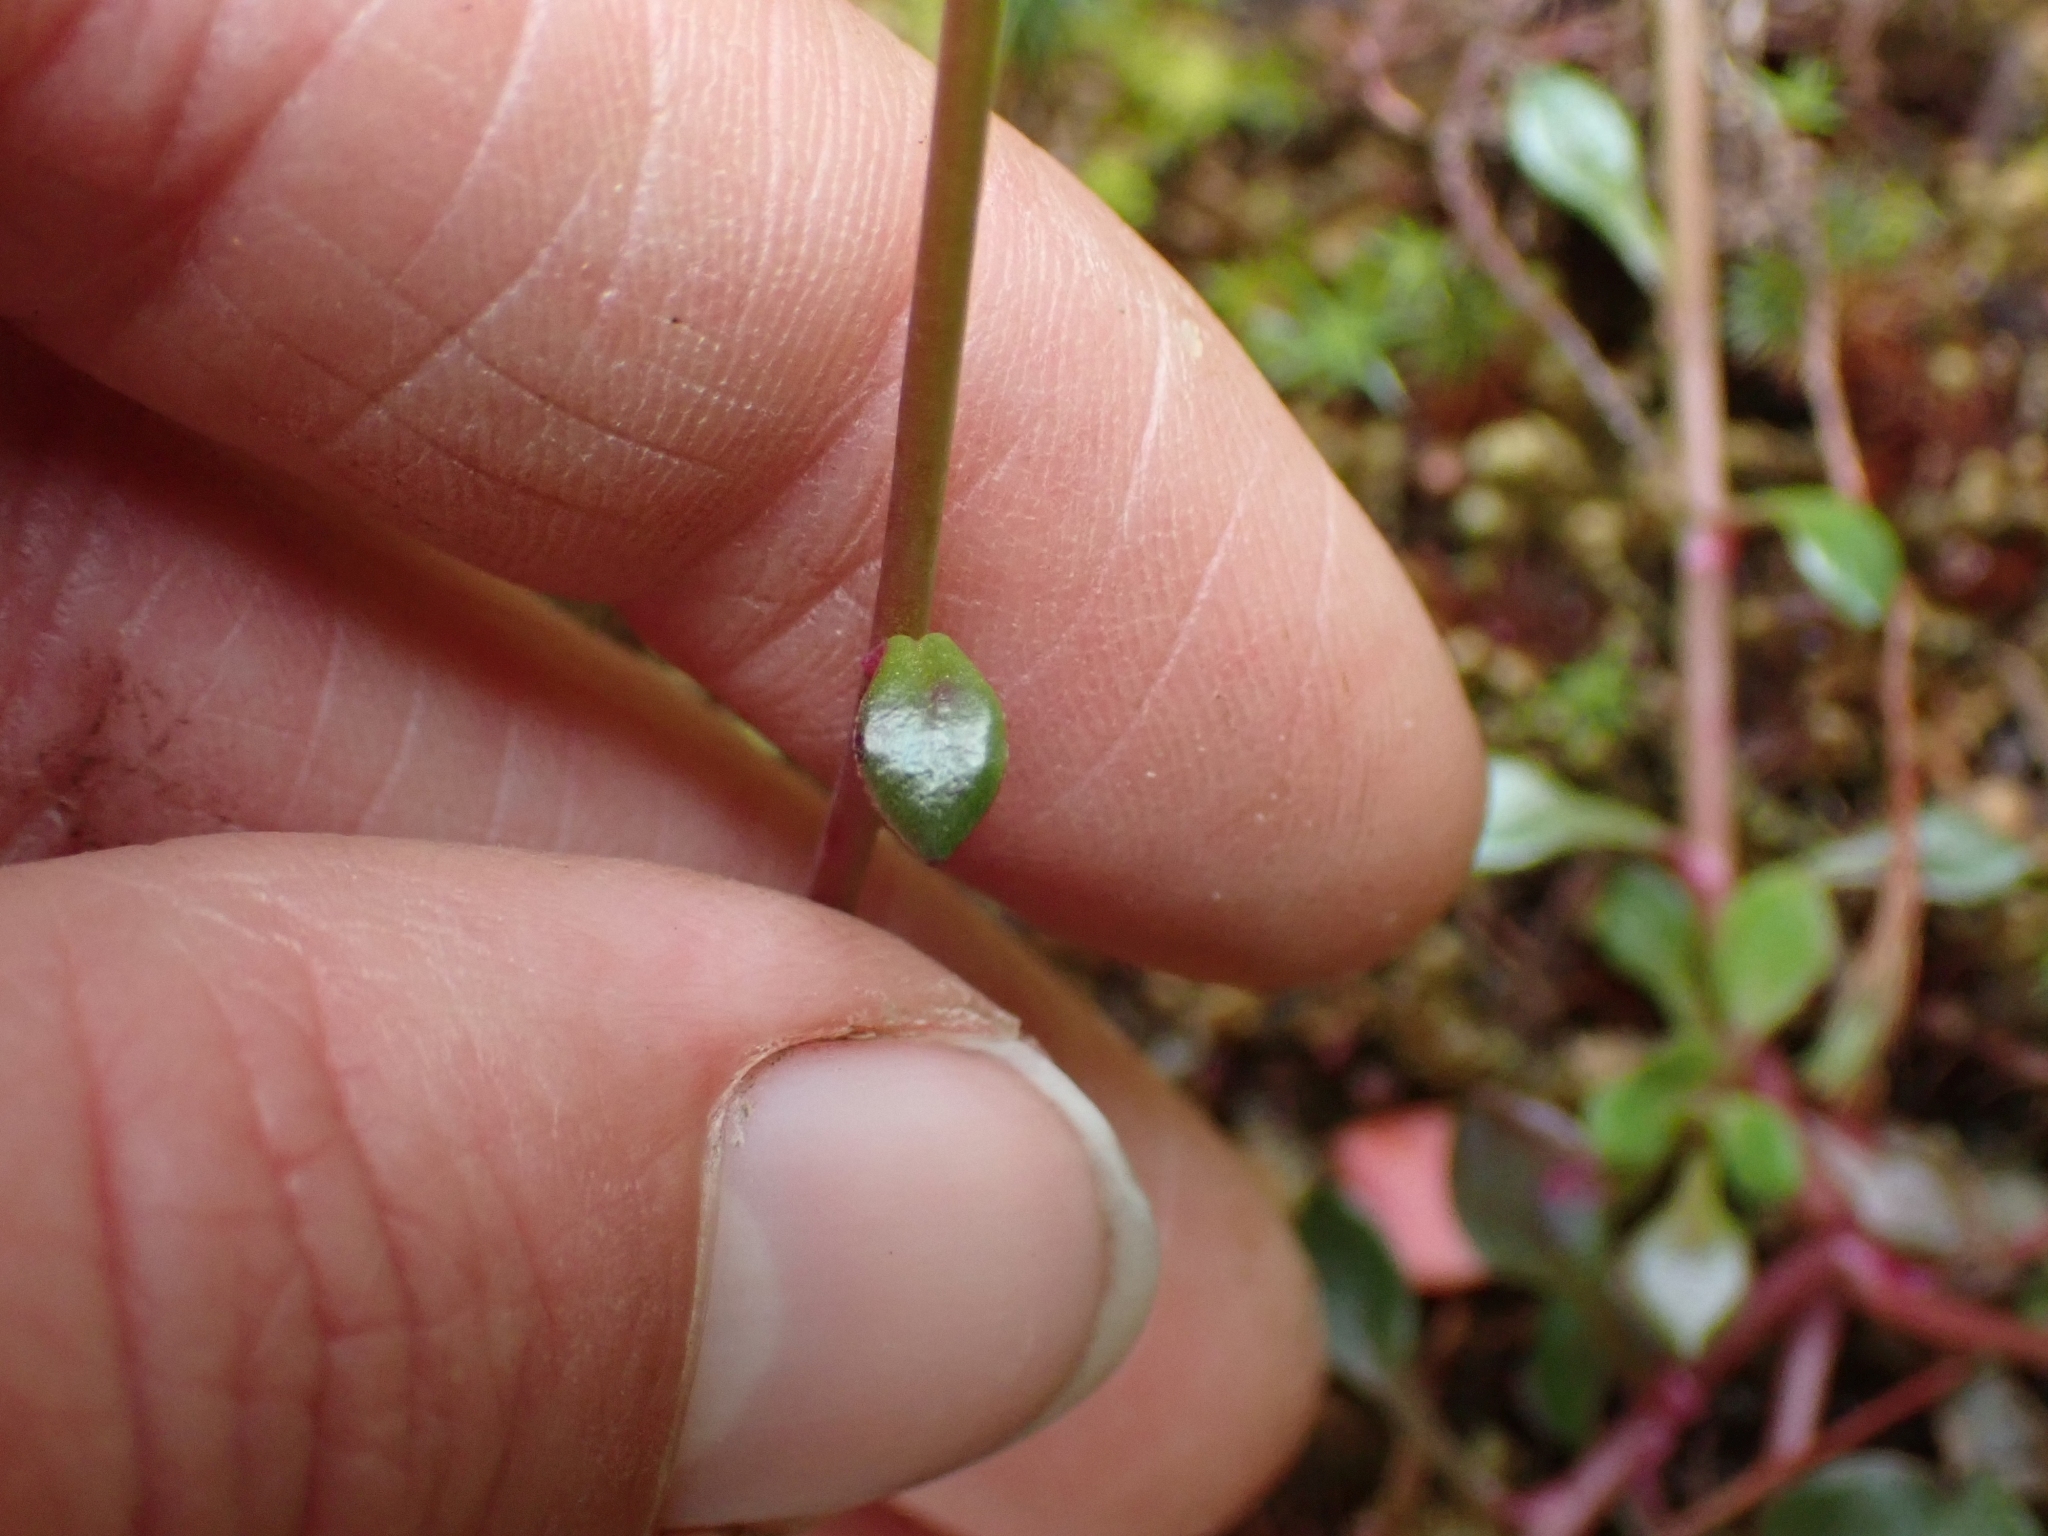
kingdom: Plantae
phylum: Tracheophyta
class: Magnoliopsida
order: Caryophyllales
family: Montiaceae
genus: Montia
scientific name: Montia parvifolia
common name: Small-leaved blinks
